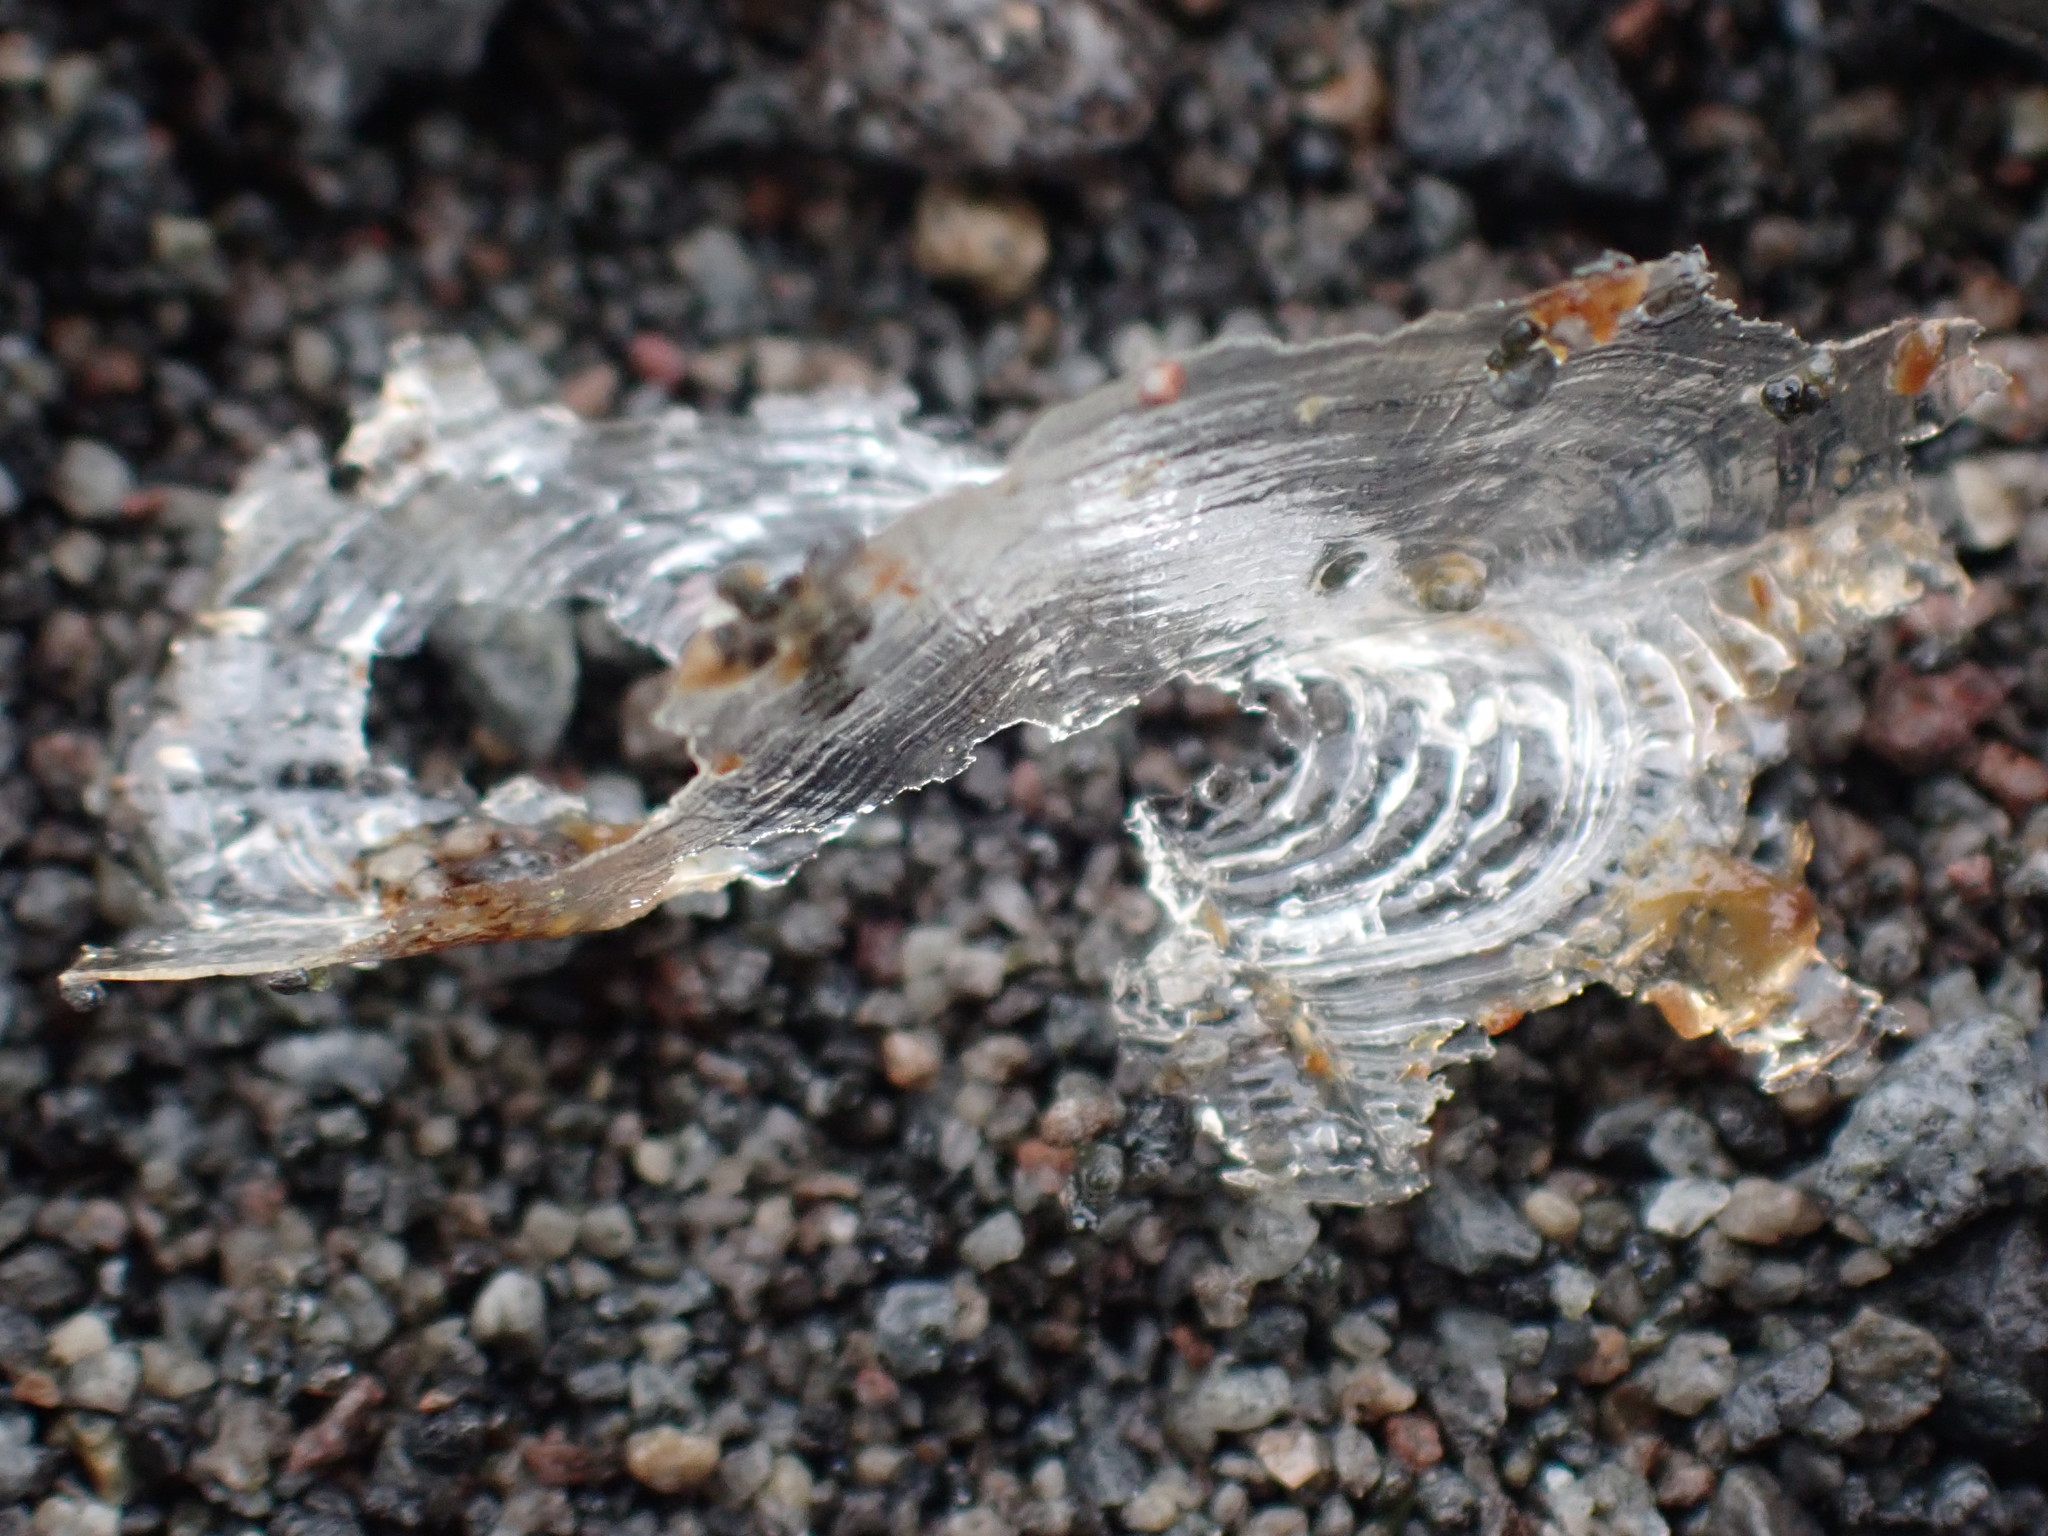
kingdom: Animalia
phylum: Cnidaria
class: Hydrozoa
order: Anthoathecata
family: Porpitidae
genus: Velella
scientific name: Velella velella
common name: By-the-wind-sailor
